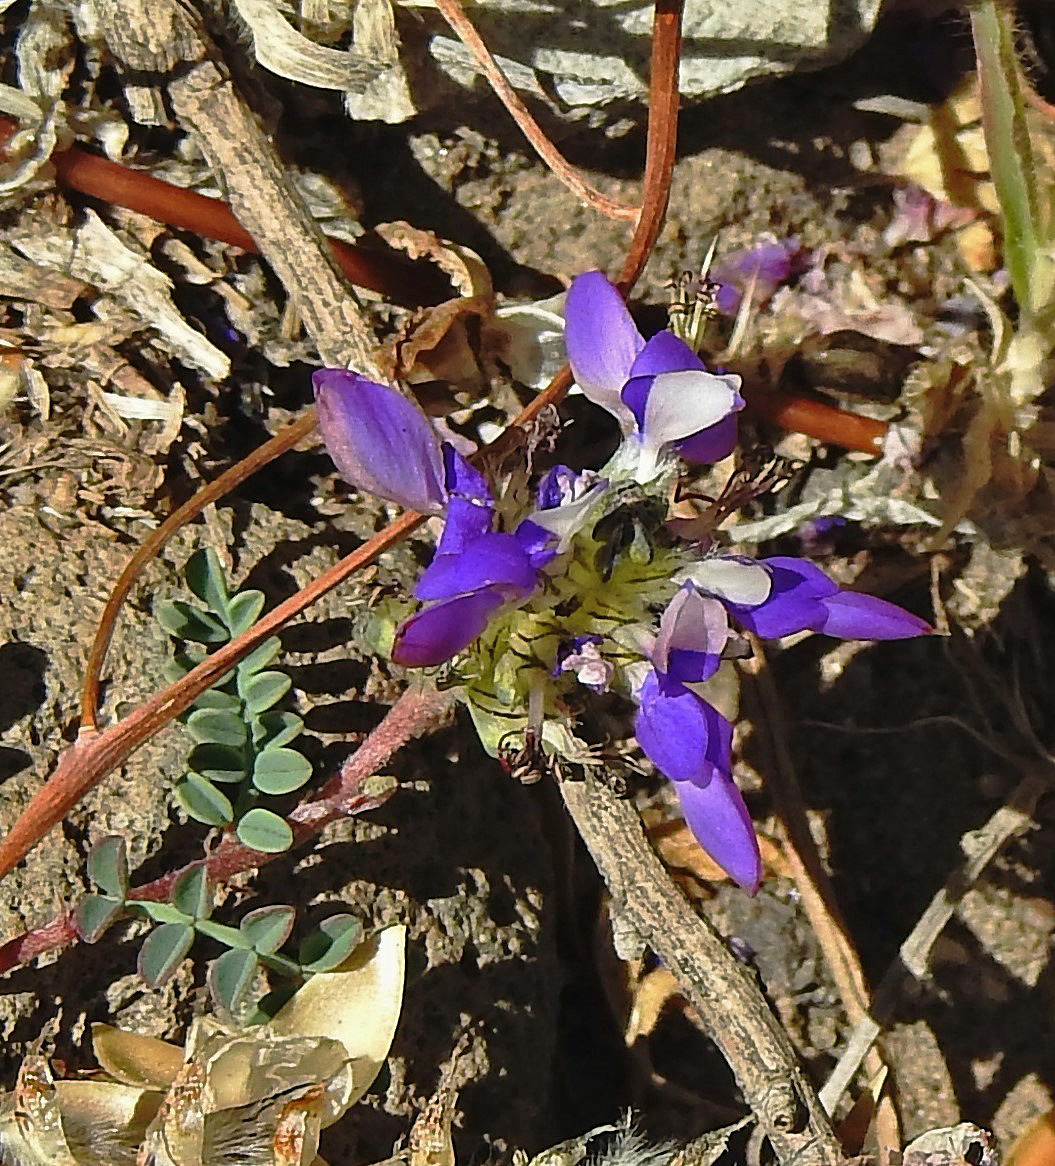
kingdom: Plantae
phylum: Tracheophyta
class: Magnoliopsida
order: Fabales
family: Fabaceae
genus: Dalea
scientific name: Dalea boliviana
